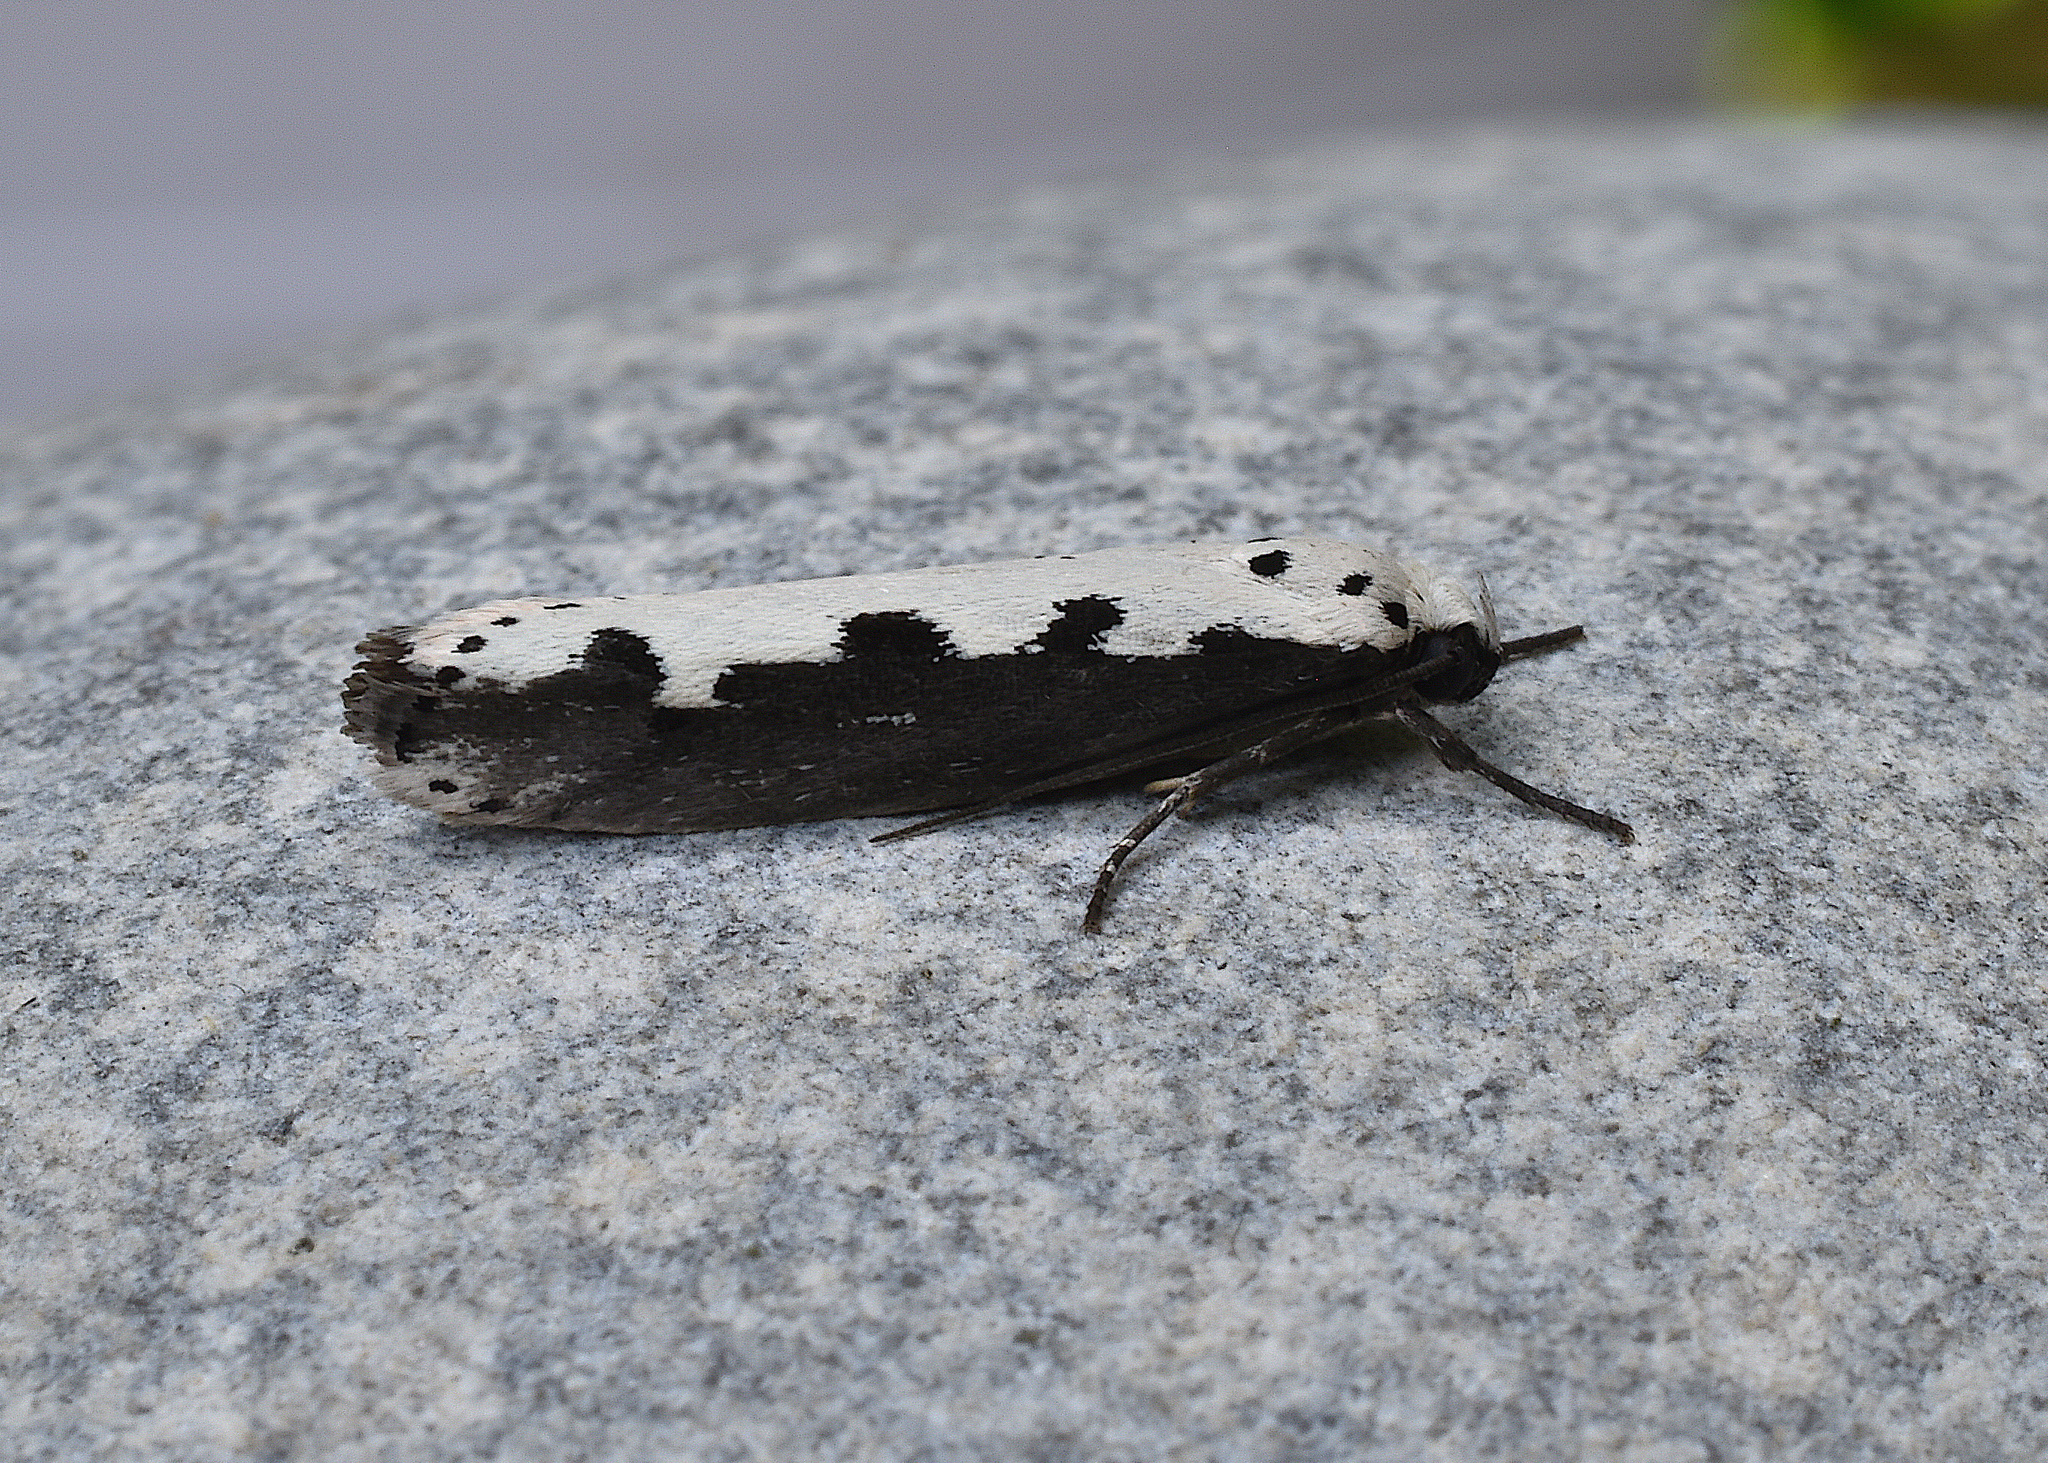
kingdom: Animalia
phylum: Arthropoda
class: Insecta
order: Lepidoptera
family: Ethmiidae
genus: Ethmia
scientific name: Ethmia bipunctella
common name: Bordered ermel
